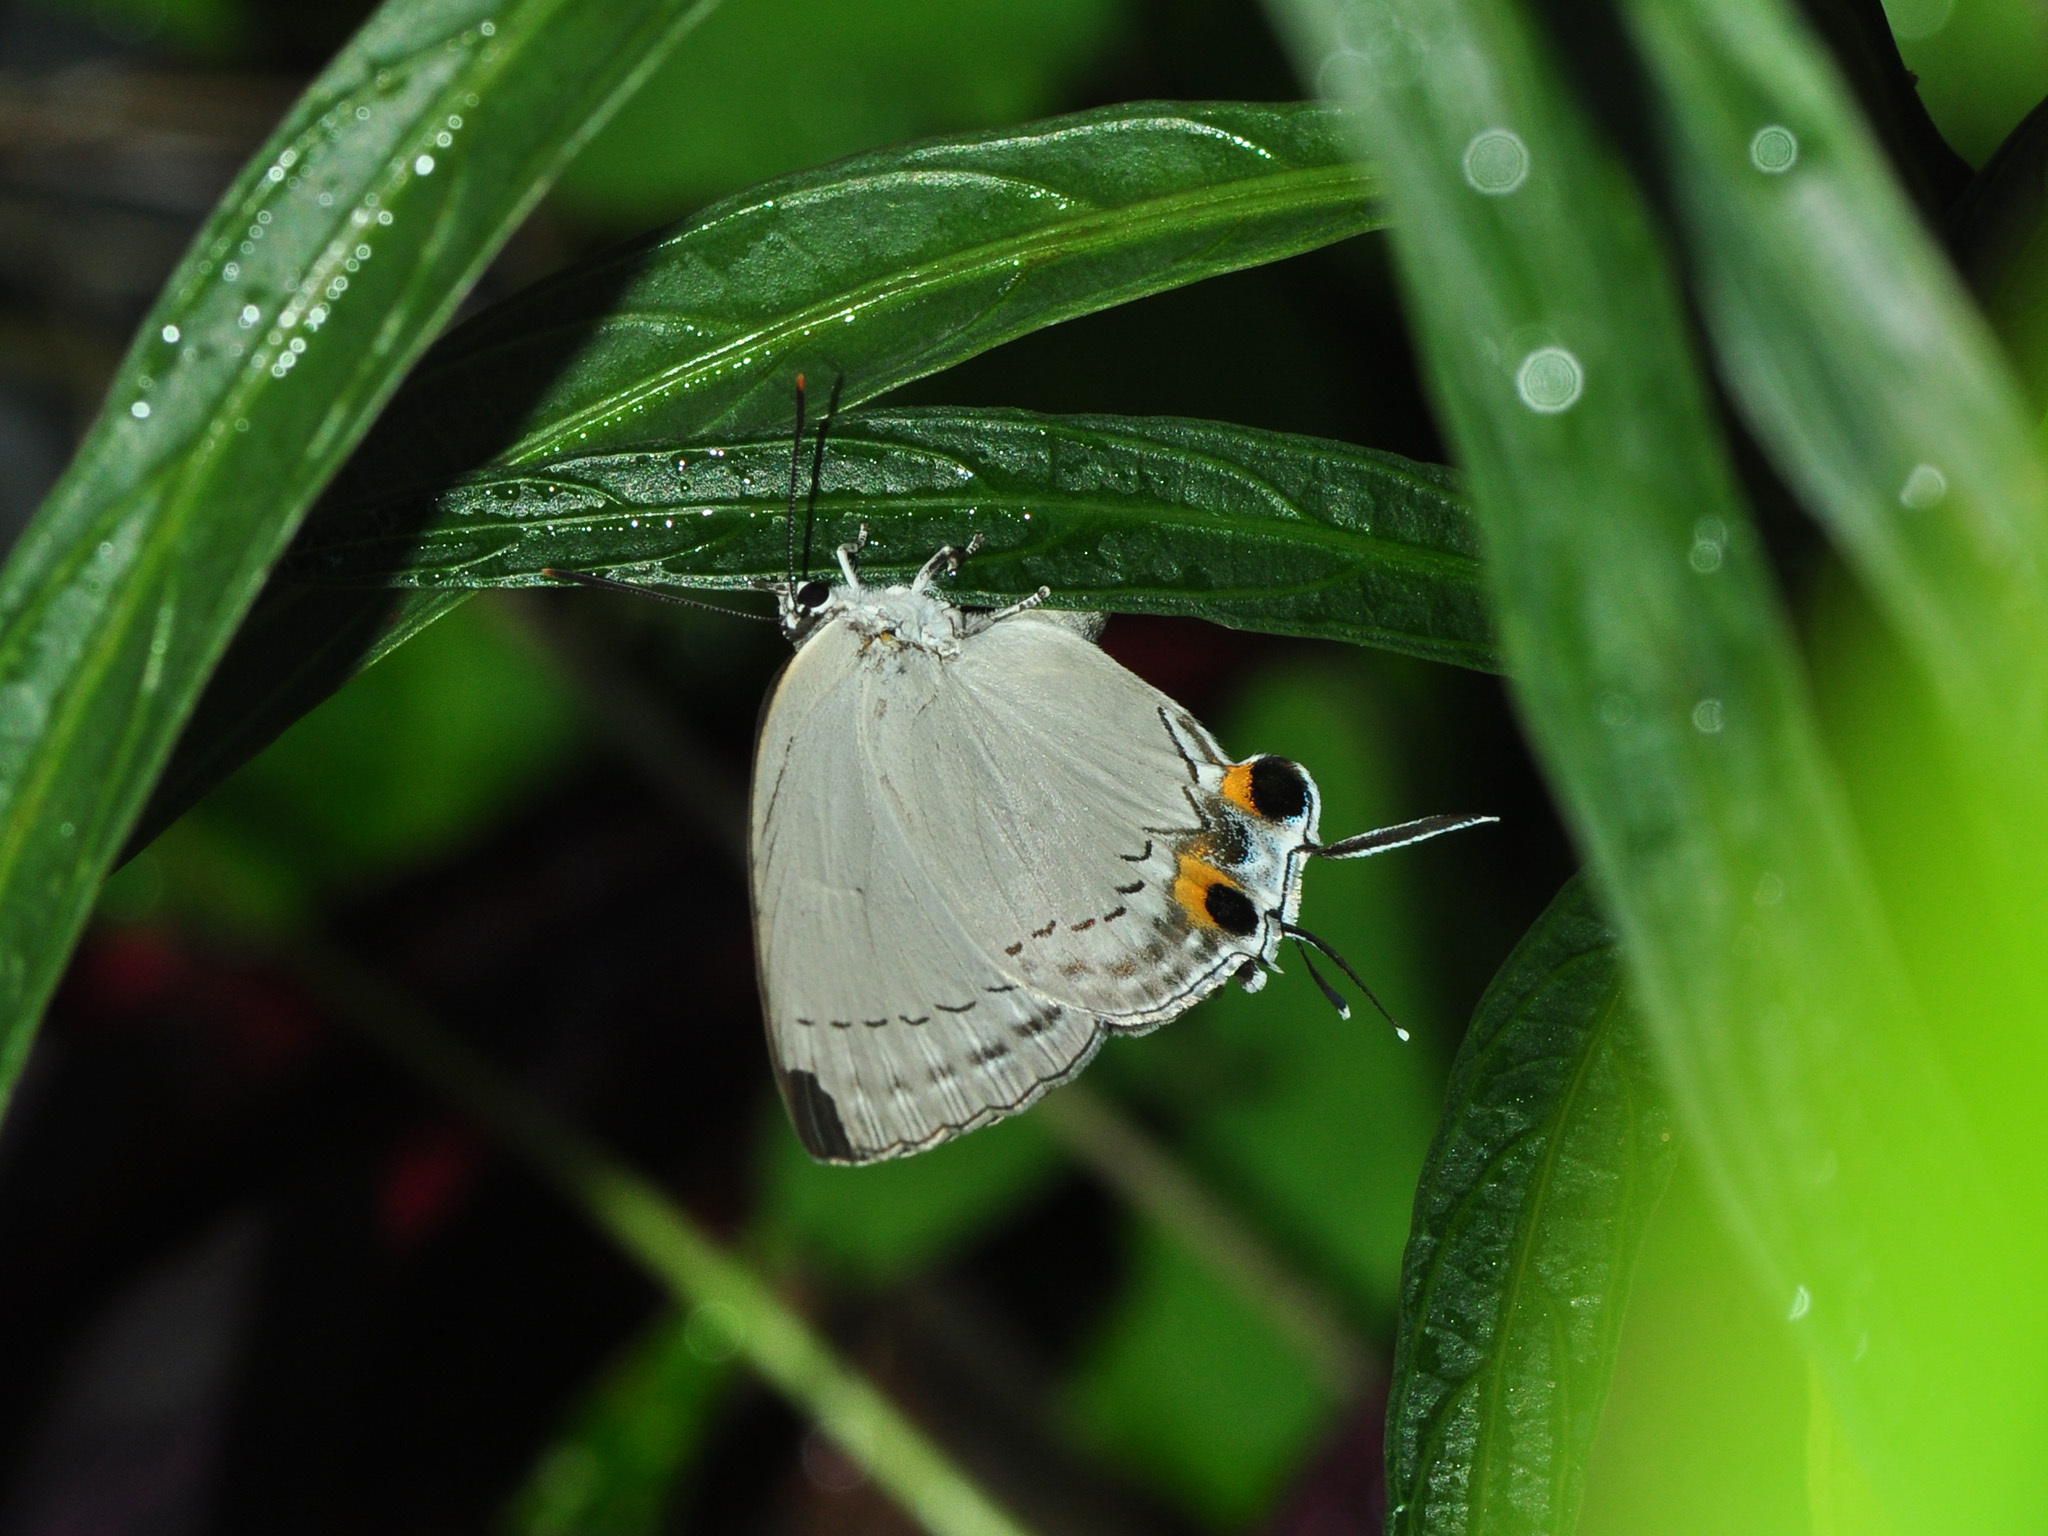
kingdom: Animalia
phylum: Arthropoda
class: Insecta
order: Lepidoptera
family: Lycaenidae
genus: Tajuria
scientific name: Tajuria cippus
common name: Peacock royal
